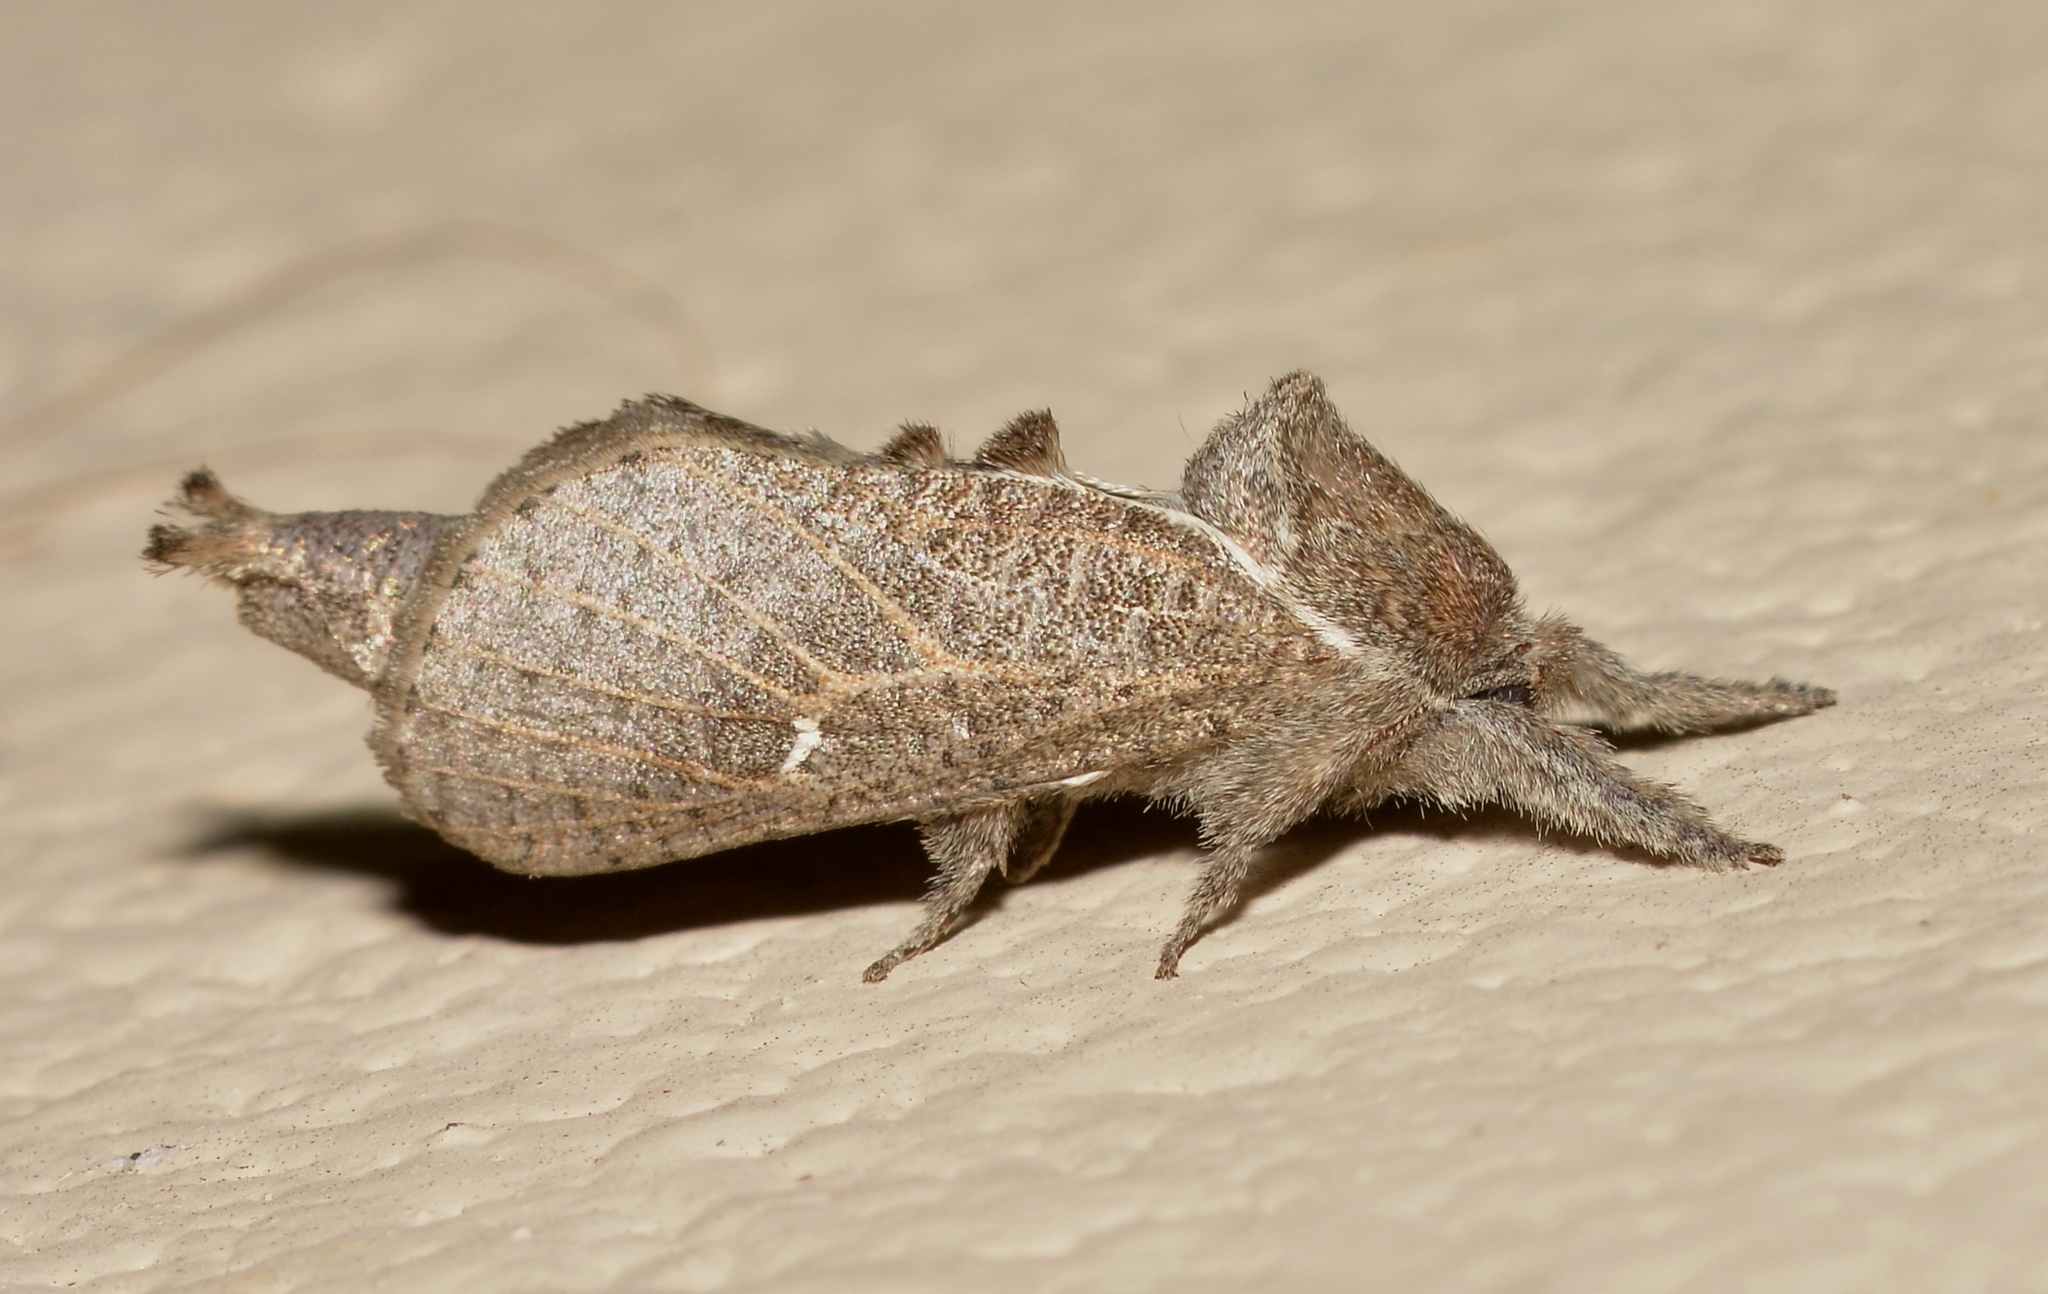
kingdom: Animalia
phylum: Arthropoda
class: Insecta
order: Lepidoptera
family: Cossidae
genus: Givira
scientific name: Givira anna
